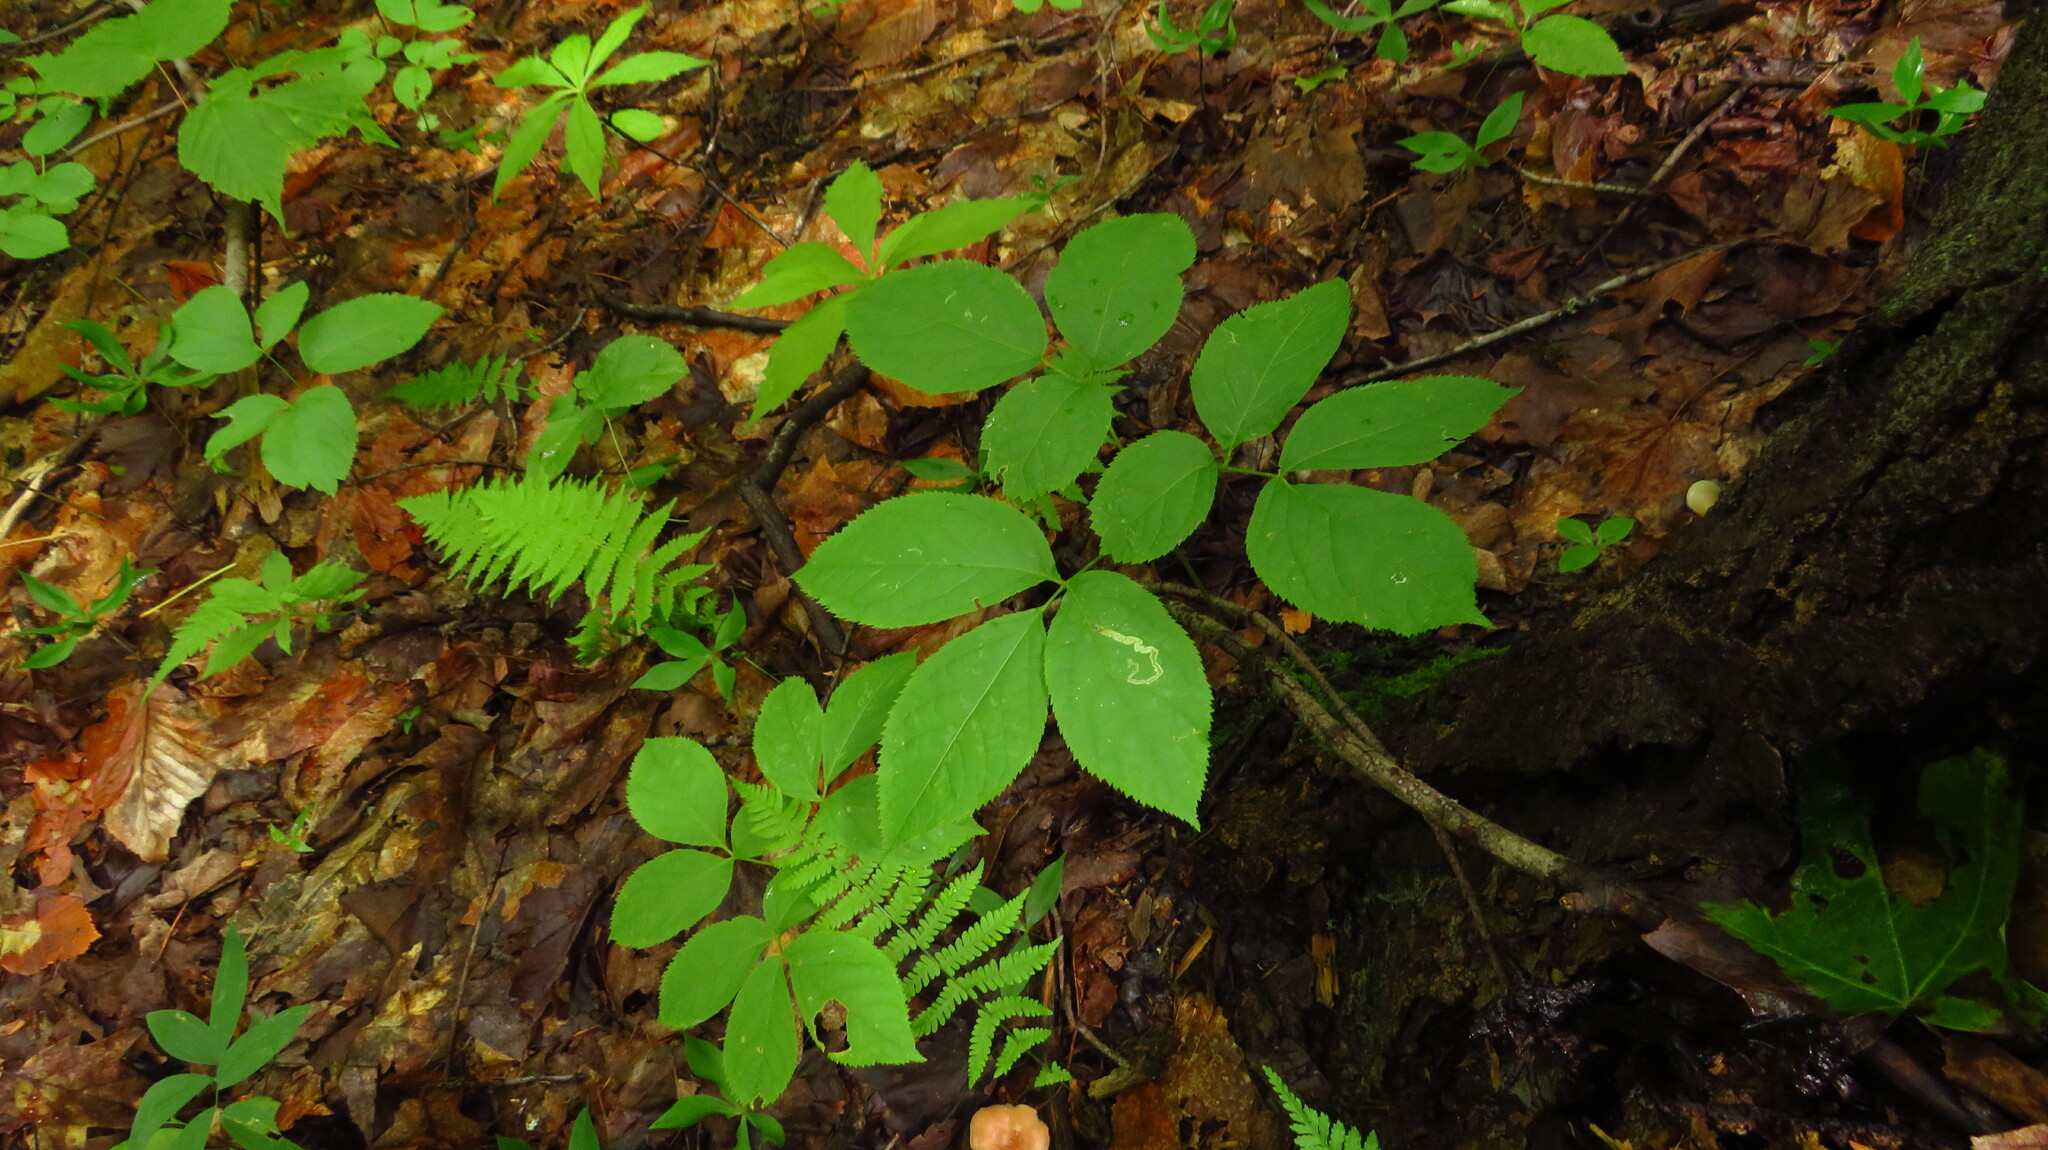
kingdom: Animalia
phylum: Arthropoda
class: Insecta
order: Diptera
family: Agromyzidae
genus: Phytomyza
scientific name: Phytomyza aralivora
